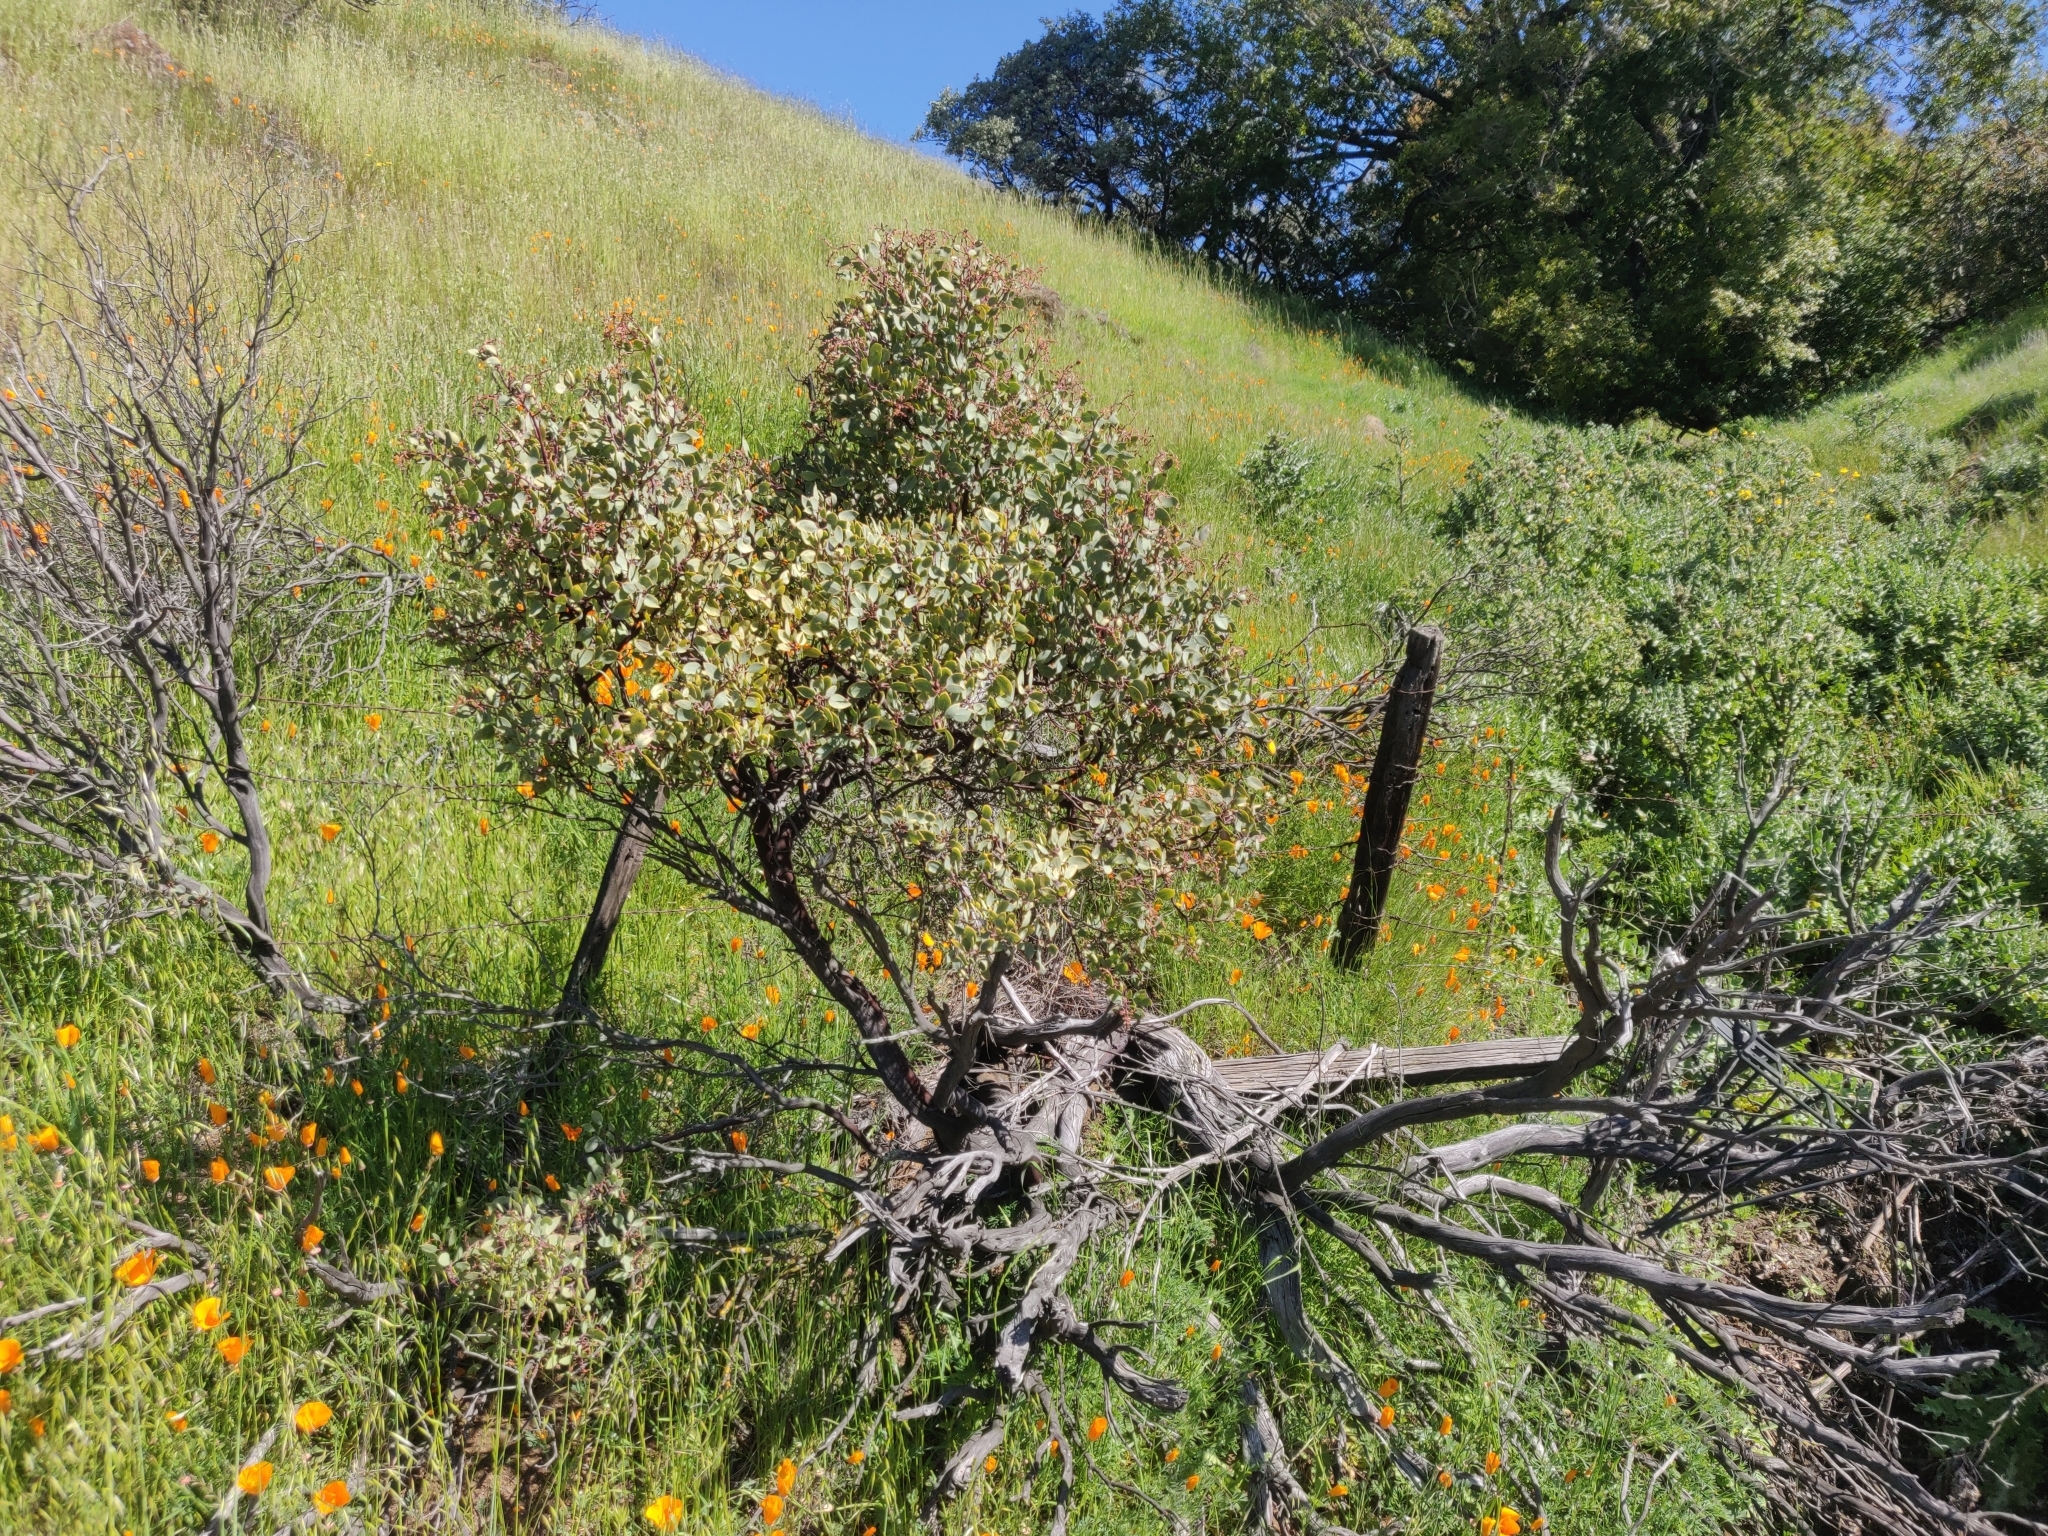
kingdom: Plantae
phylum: Tracheophyta
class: Magnoliopsida
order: Ericales
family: Ericaceae
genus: Arctostaphylos
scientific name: Arctostaphylos glauca
